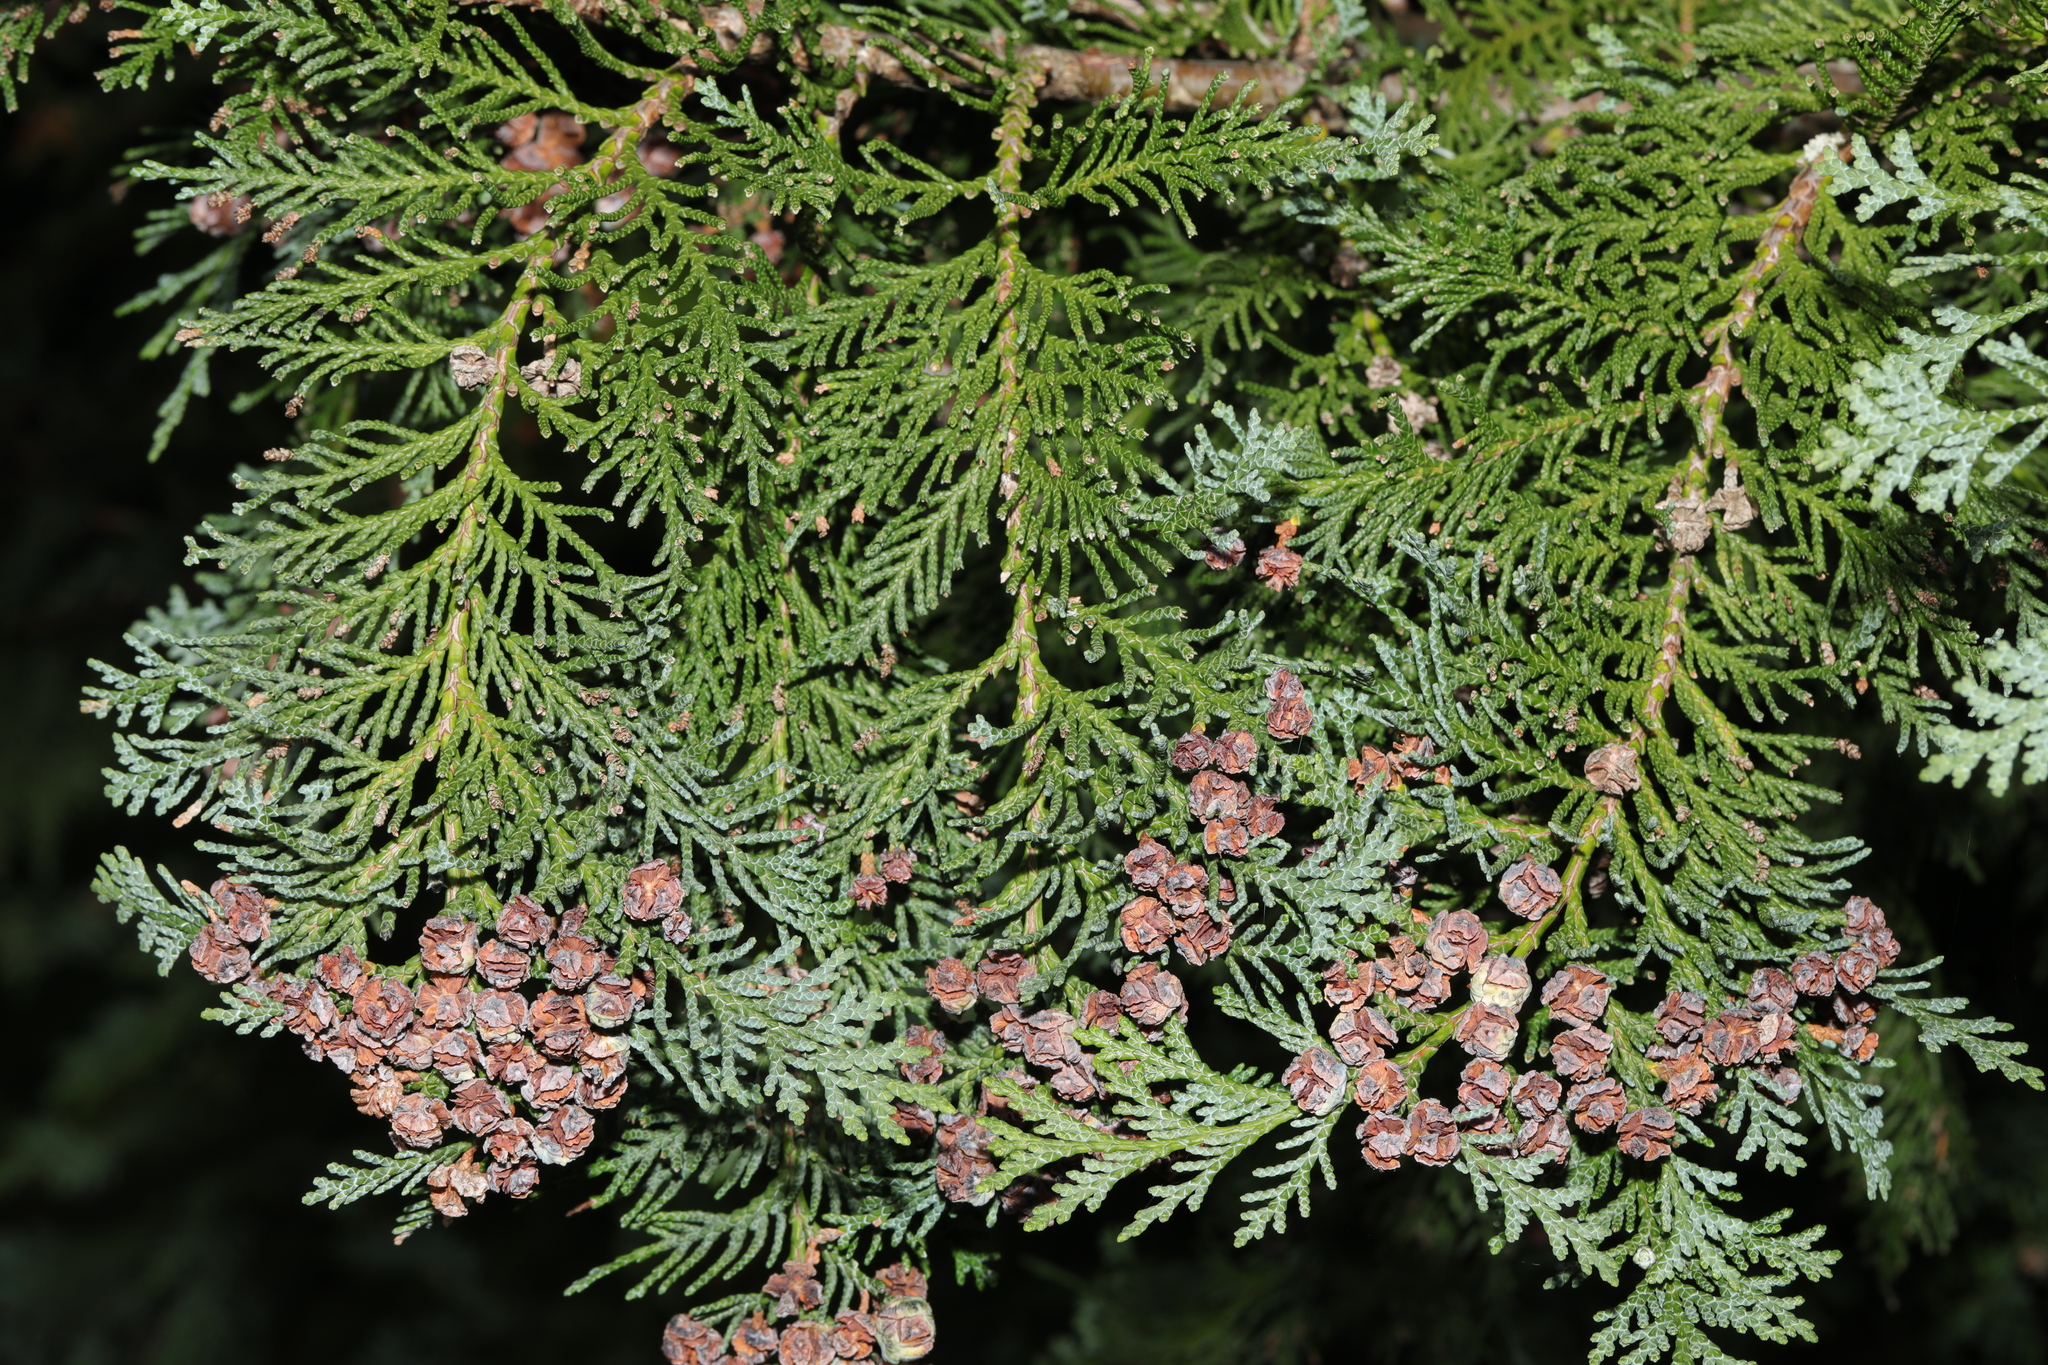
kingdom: Plantae
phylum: Tracheophyta
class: Pinopsida
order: Pinales
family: Cupressaceae
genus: Chamaecyparis
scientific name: Chamaecyparis lawsoniana
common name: Lawson's cypress
